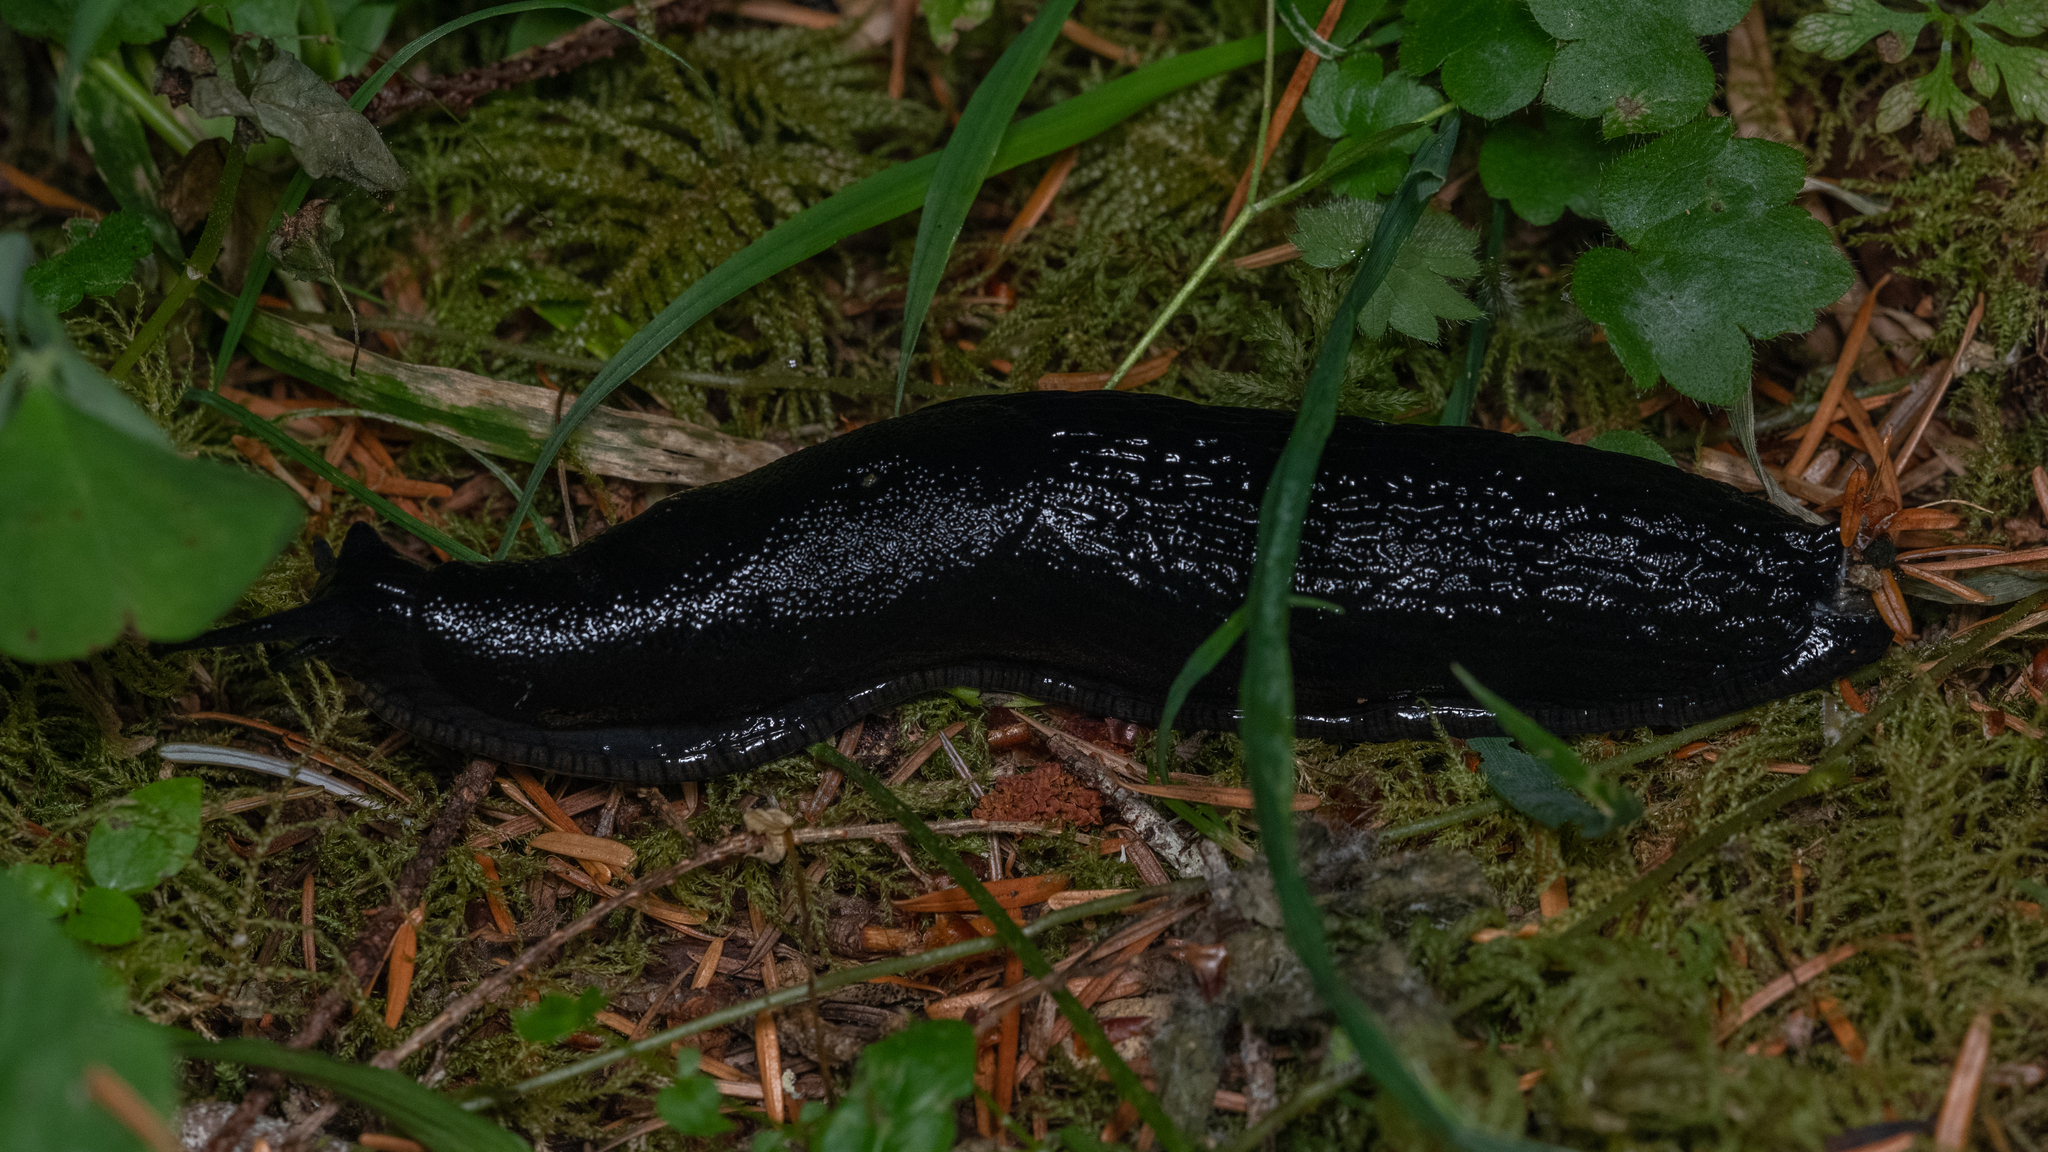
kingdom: Animalia
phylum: Mollusca
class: Gastropoda
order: Stylommatophora
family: Arionidae
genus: Arion
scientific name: Arion
